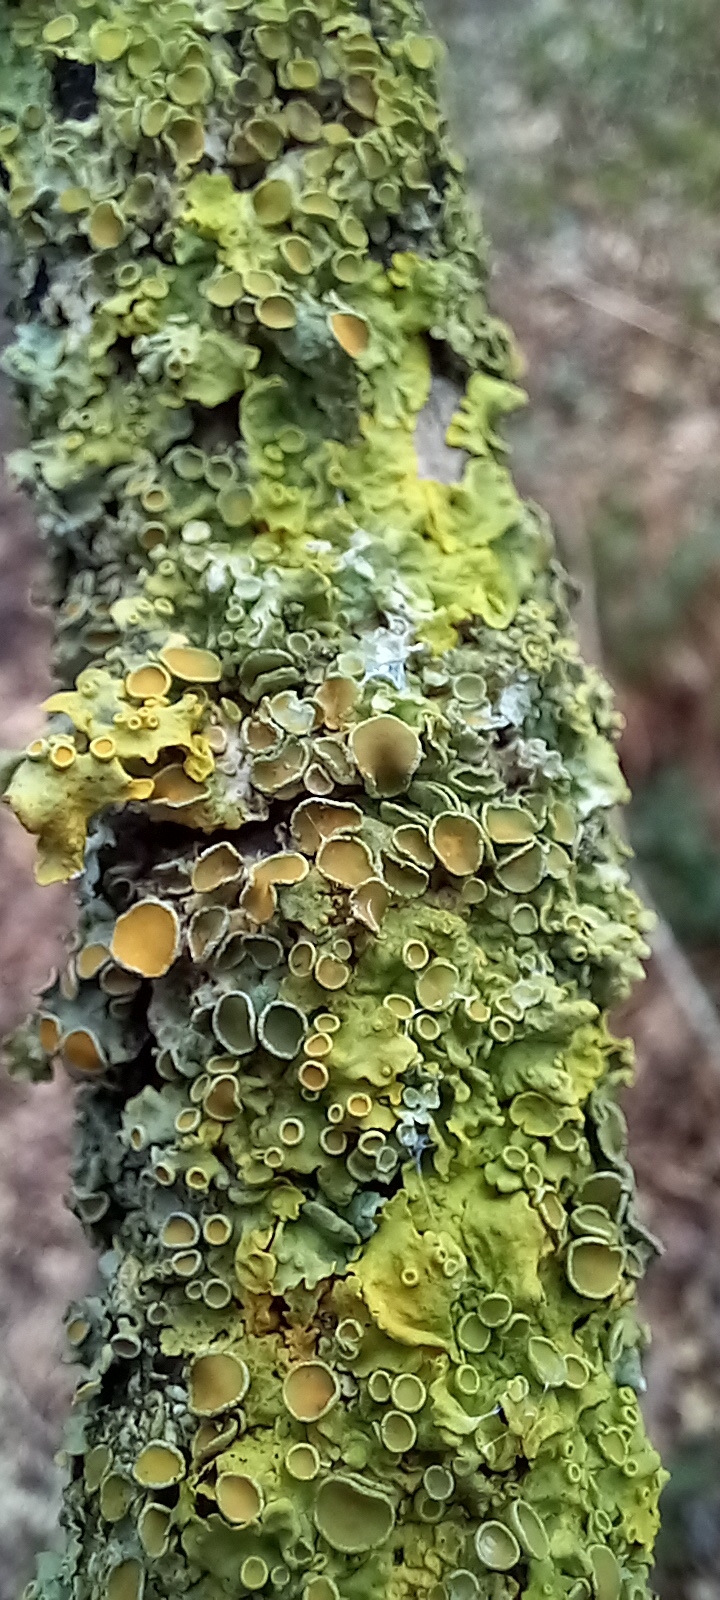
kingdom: Fungi
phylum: Ascomycota
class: Lecanoromycetes
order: Teloschistales
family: Teloschistaceae
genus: Xanthoria
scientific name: Xanthoria parietina
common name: Common orange lichen
